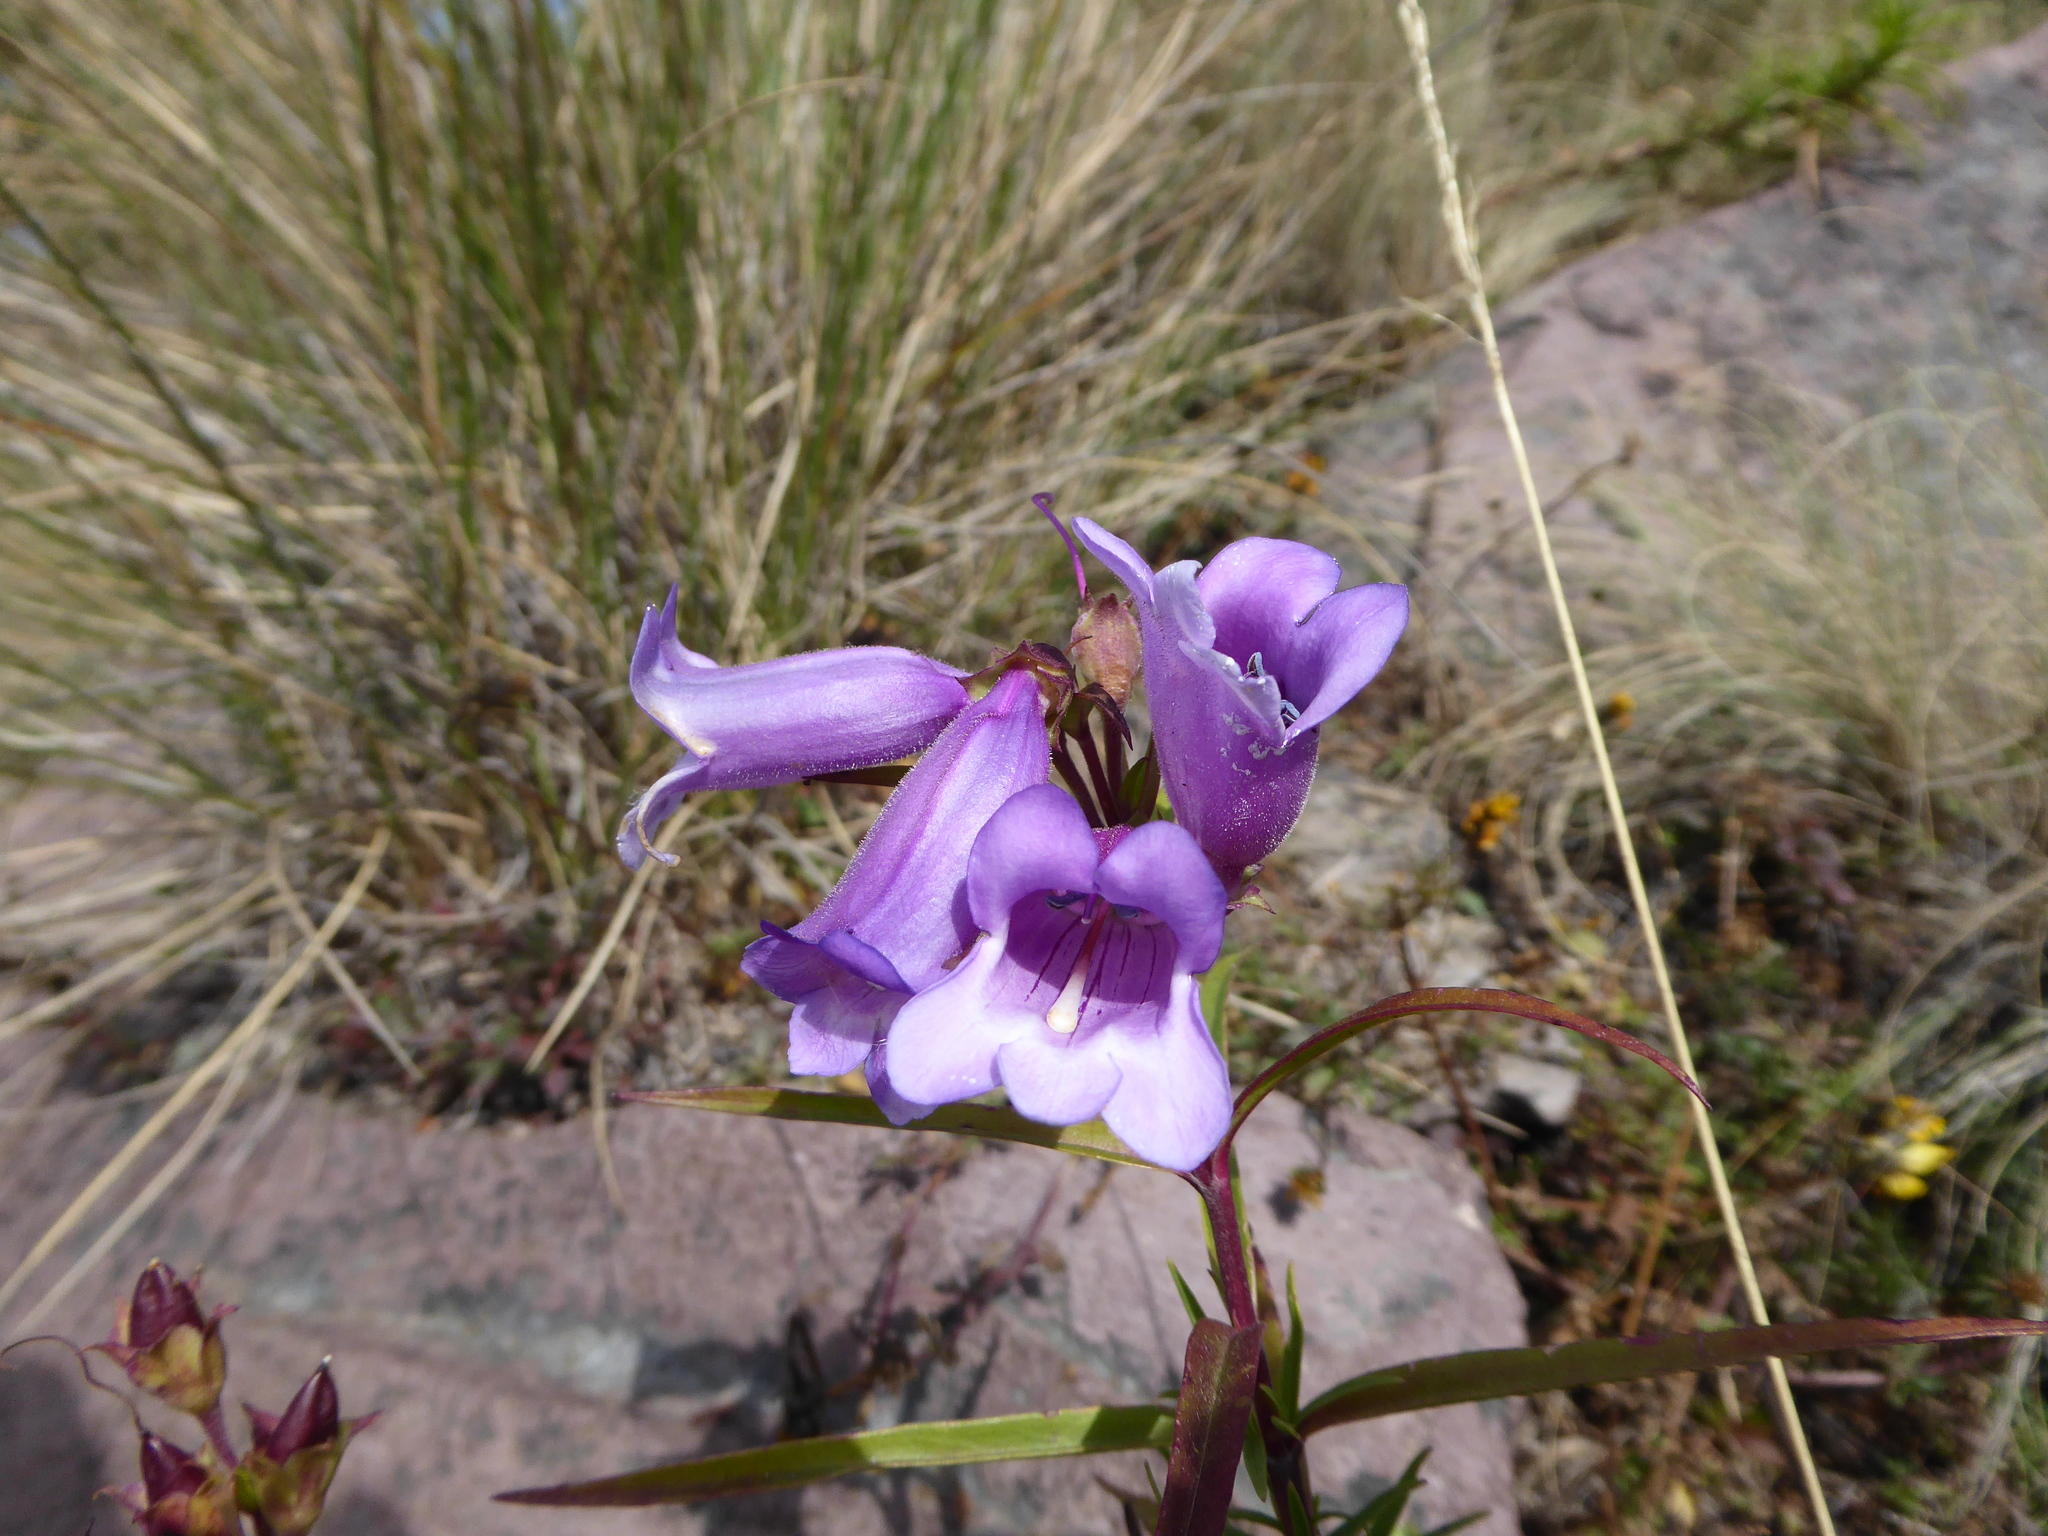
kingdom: Plantae
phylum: Tracheophyta
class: Magnoliopsida
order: Lamiales
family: Plantaginaceae
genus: Penstemon
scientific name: Penstemon gentianoides
